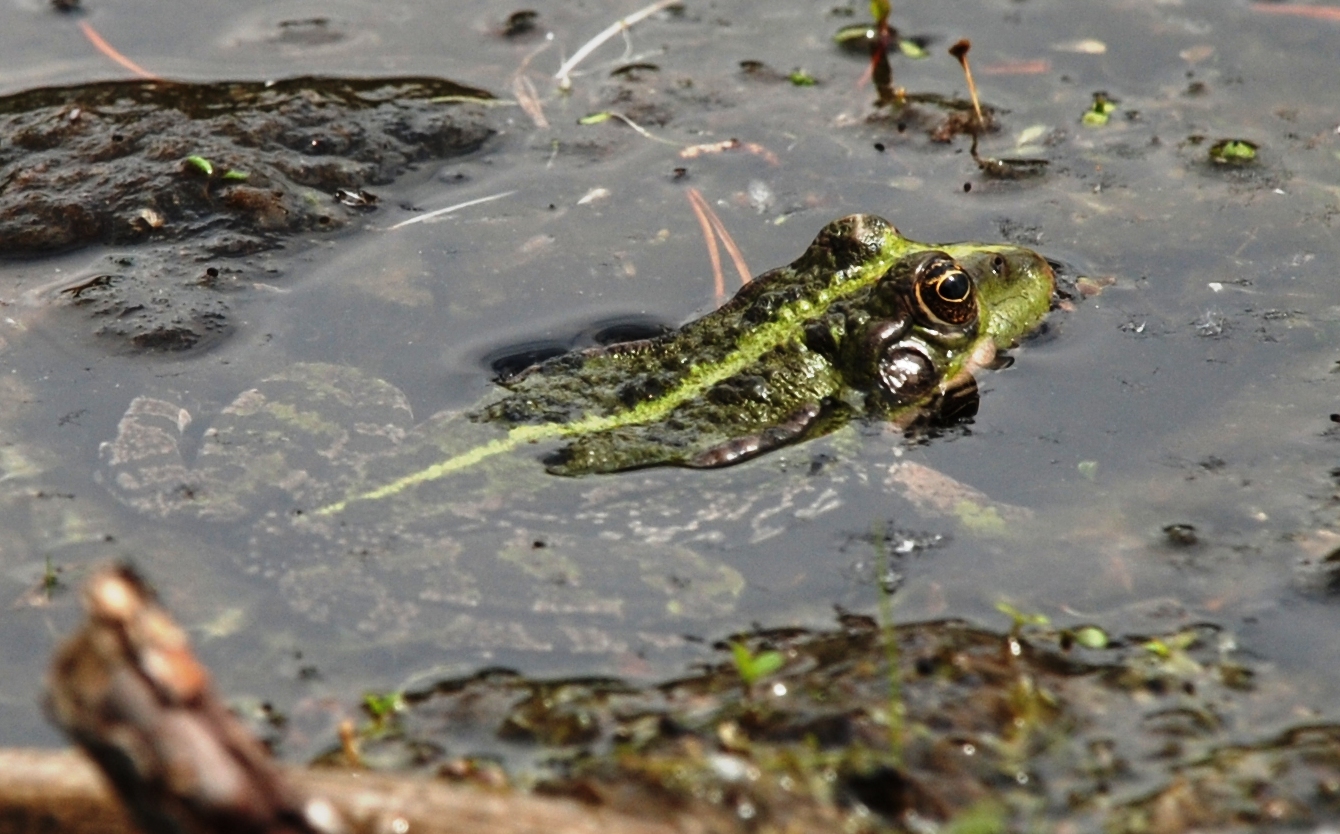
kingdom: Animalia
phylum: Chordata
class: Amphibia
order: Anura
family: Ranidae
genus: Pelophylax
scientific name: Pelophylax ridibundus
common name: Marsh frog
